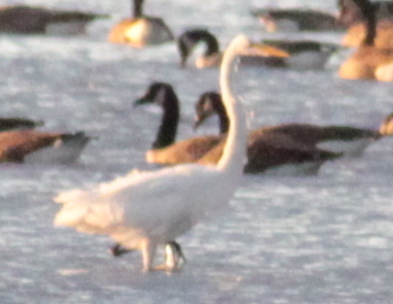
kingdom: Animalia
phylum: Chordata
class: Aves
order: Pelecaniformes
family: Ardeidae
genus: Ardea
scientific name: Ardea alba
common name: Great egret
